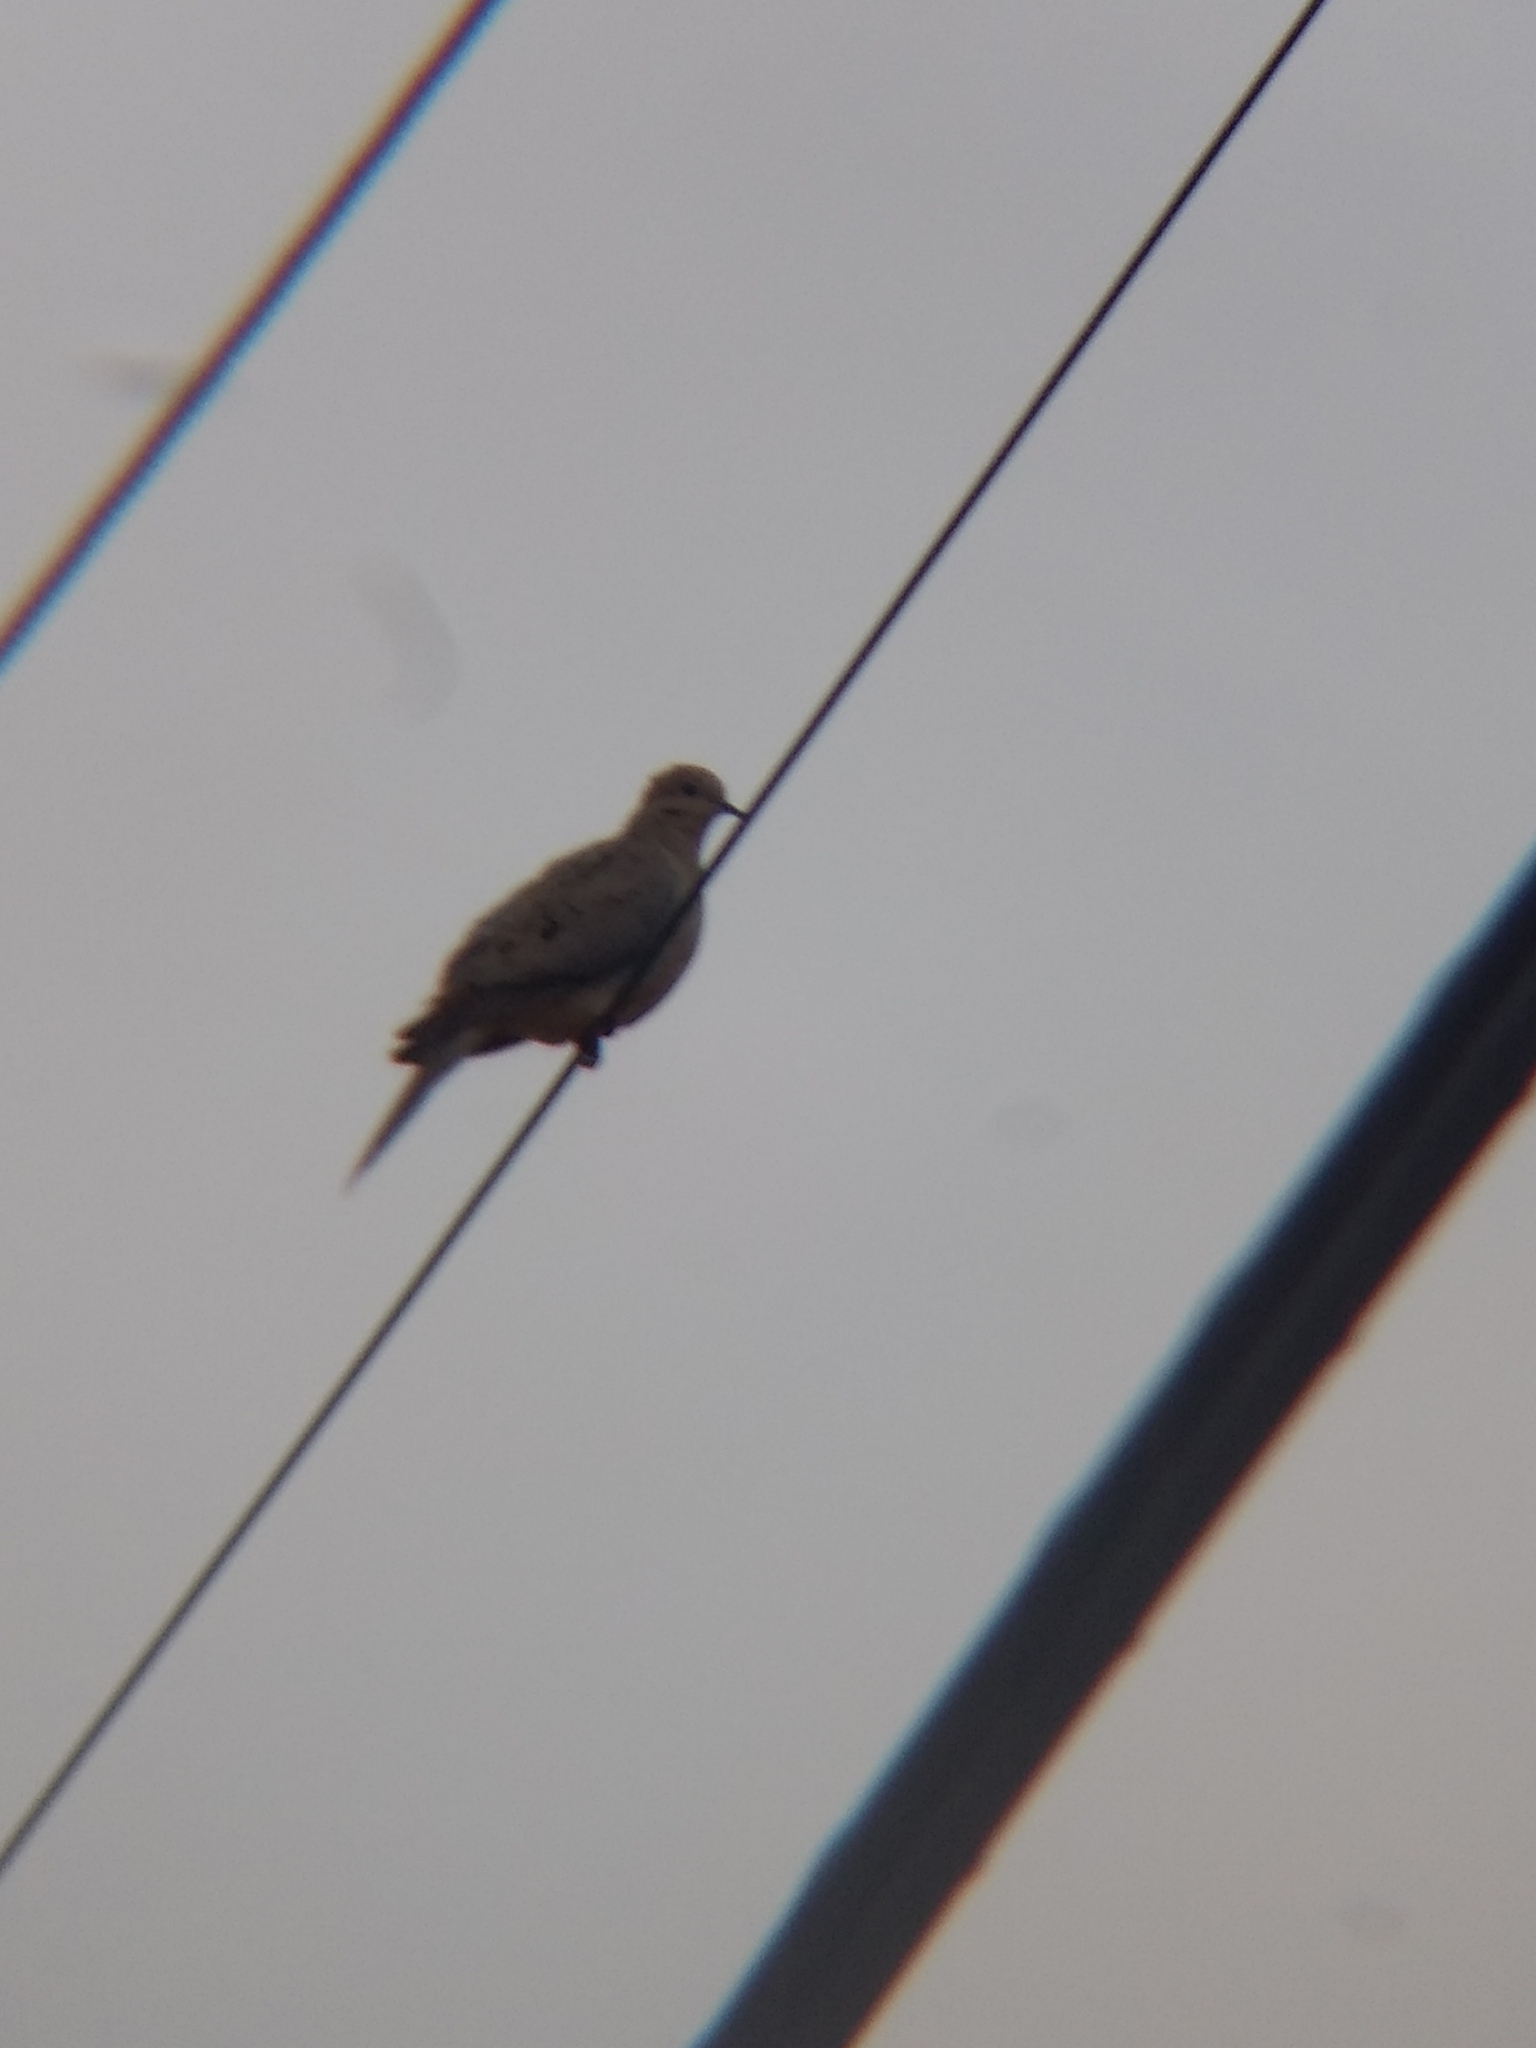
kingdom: Animalia
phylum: Chordata
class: Aves
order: Columbiformes
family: Columbidae
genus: Zenaida
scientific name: Zenaida macroura
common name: Mourning dove
